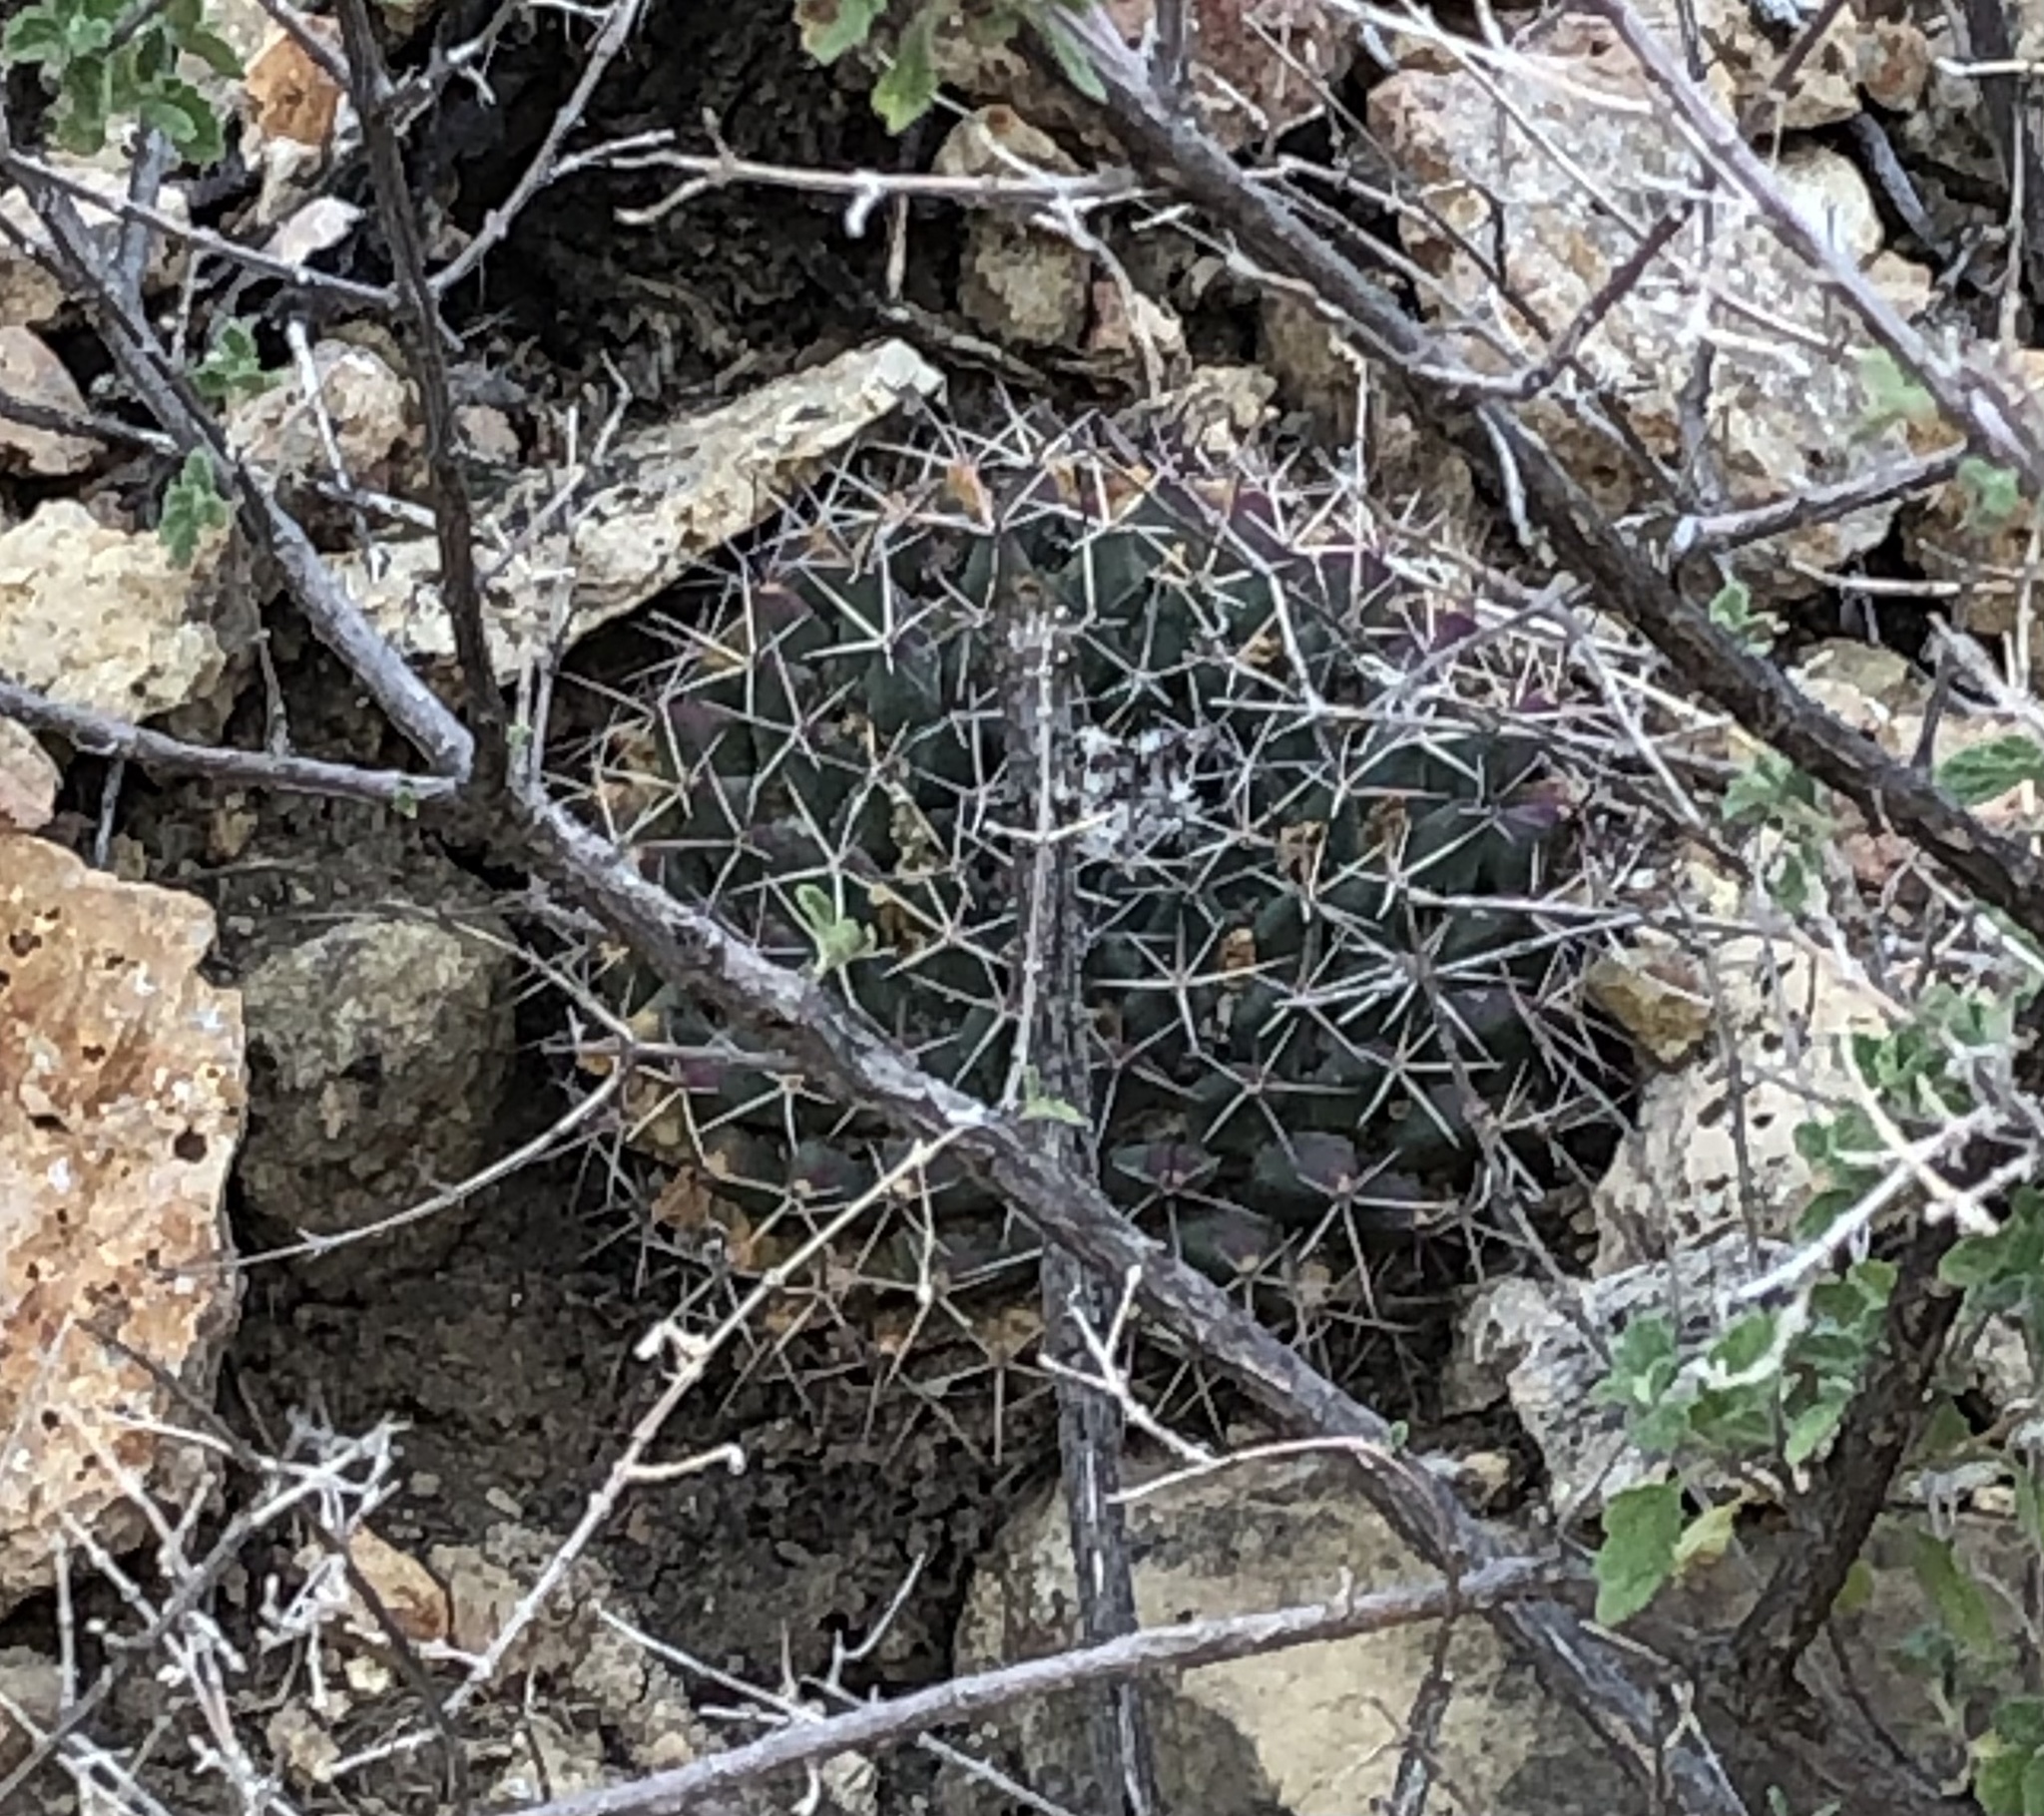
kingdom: Plantae
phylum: Tracheophyta
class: Magnoliopsida
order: Caryophyllales
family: Cactaceae
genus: Mammillaria
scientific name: Mammillaria heyderi
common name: Little nipple cactus
